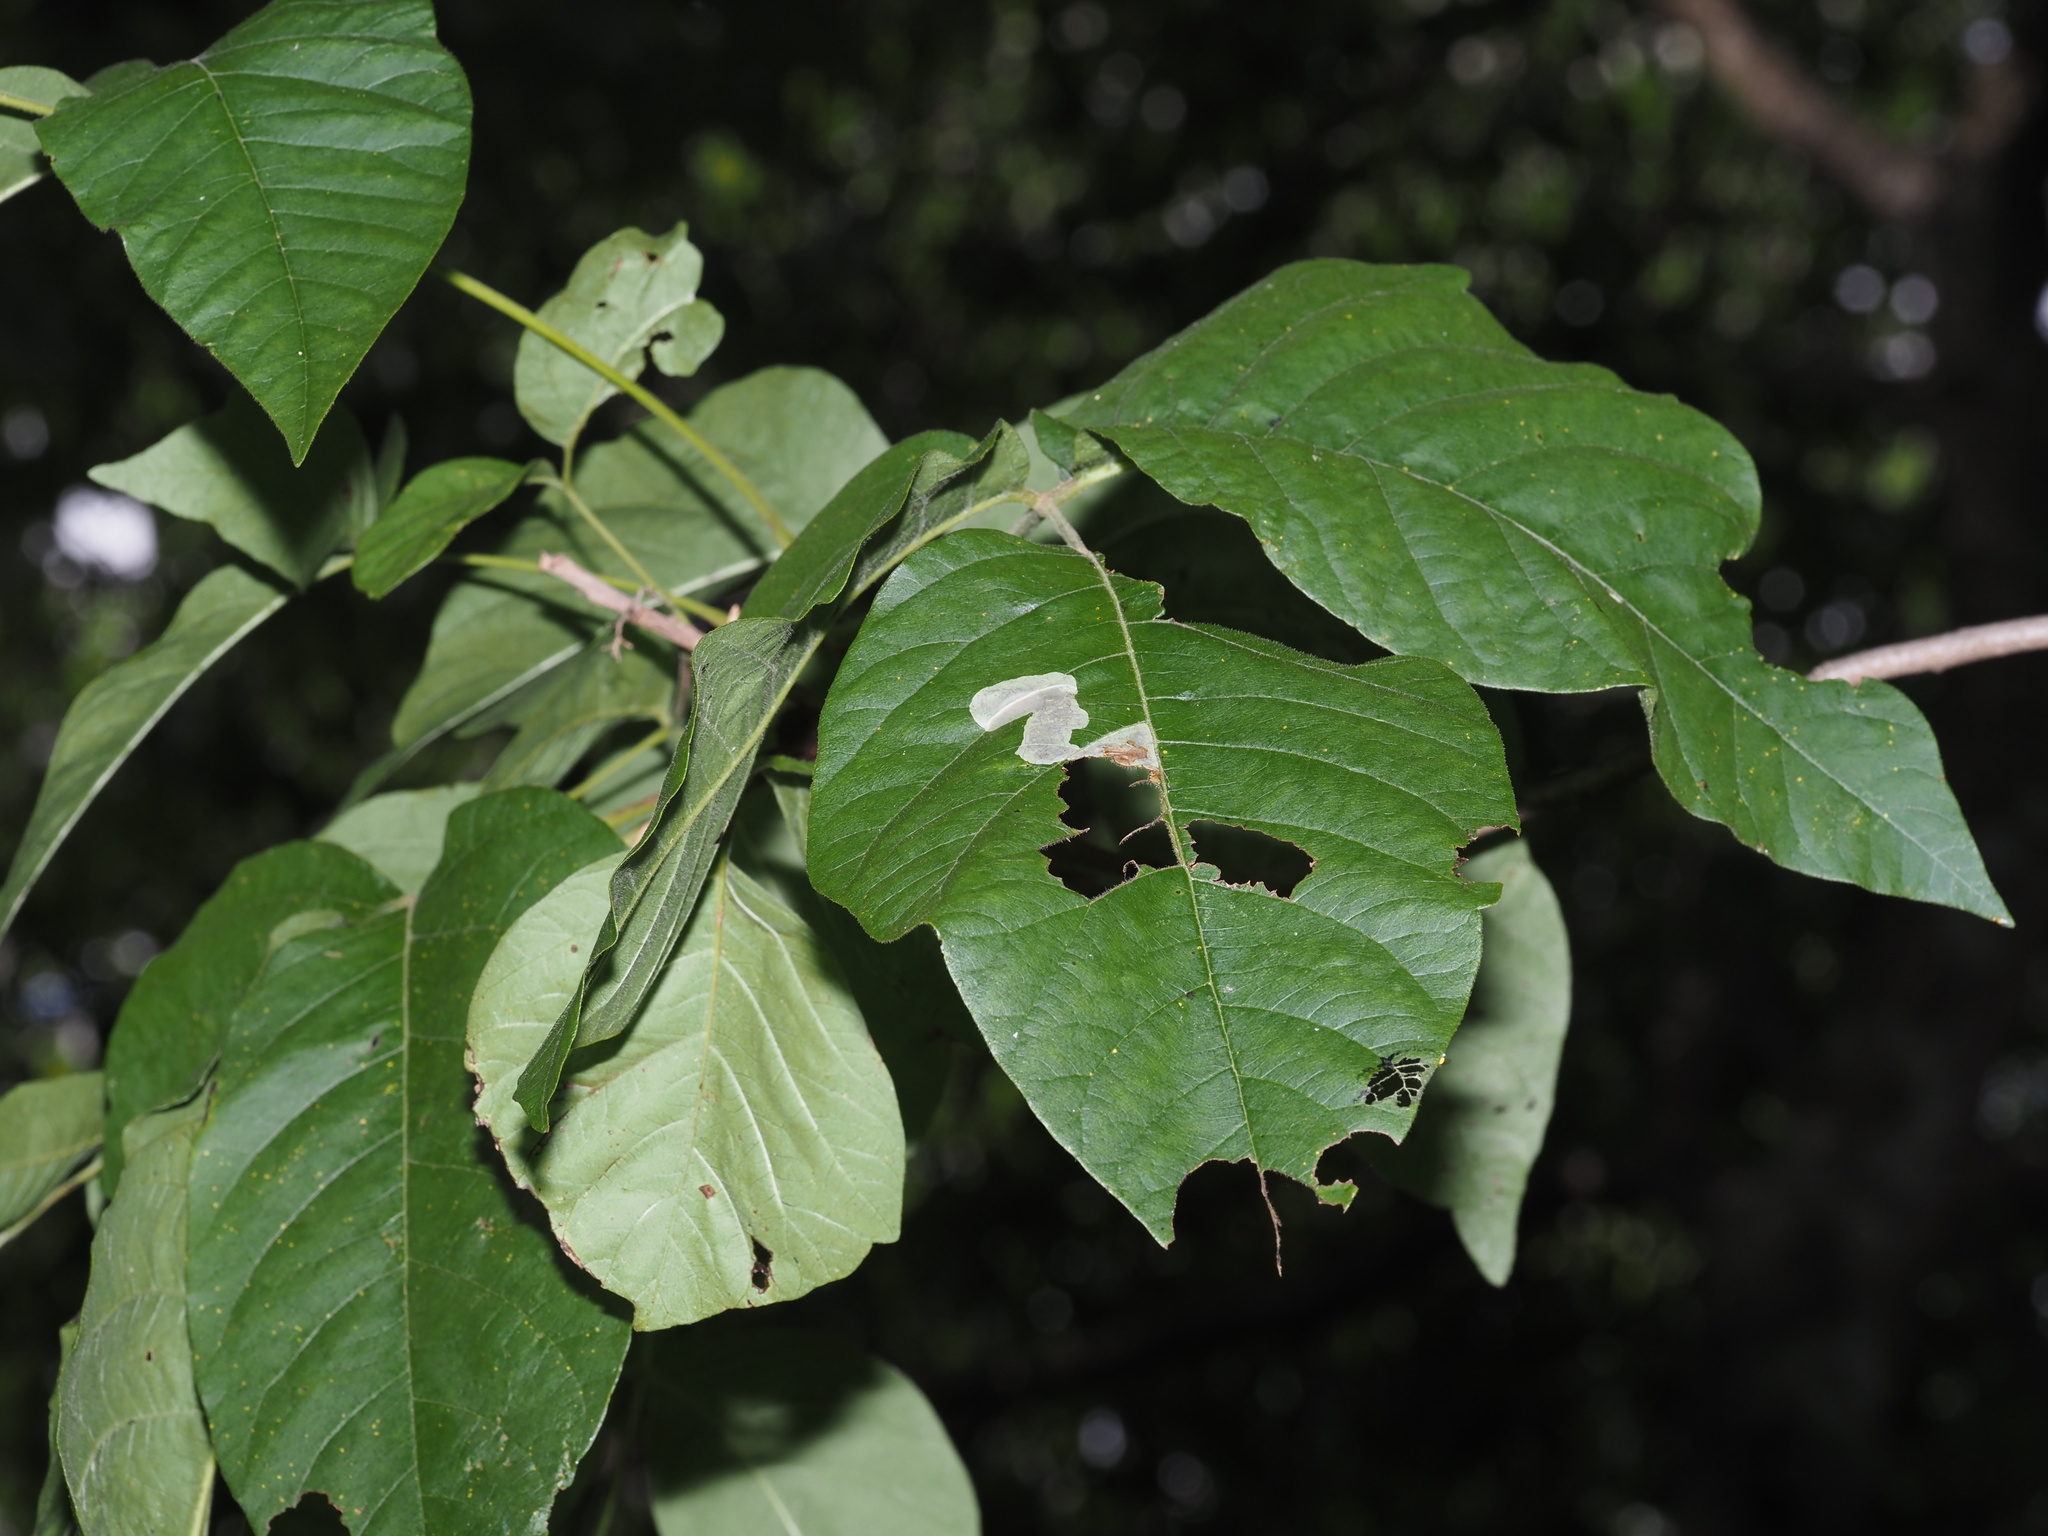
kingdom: Animalia
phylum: Arthropoda
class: Insecta
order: Lepidoptera
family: Gracillariidae
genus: Cameraria
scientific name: Cameraria guttifinitella
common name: Poison ivy leaf-miner moth
